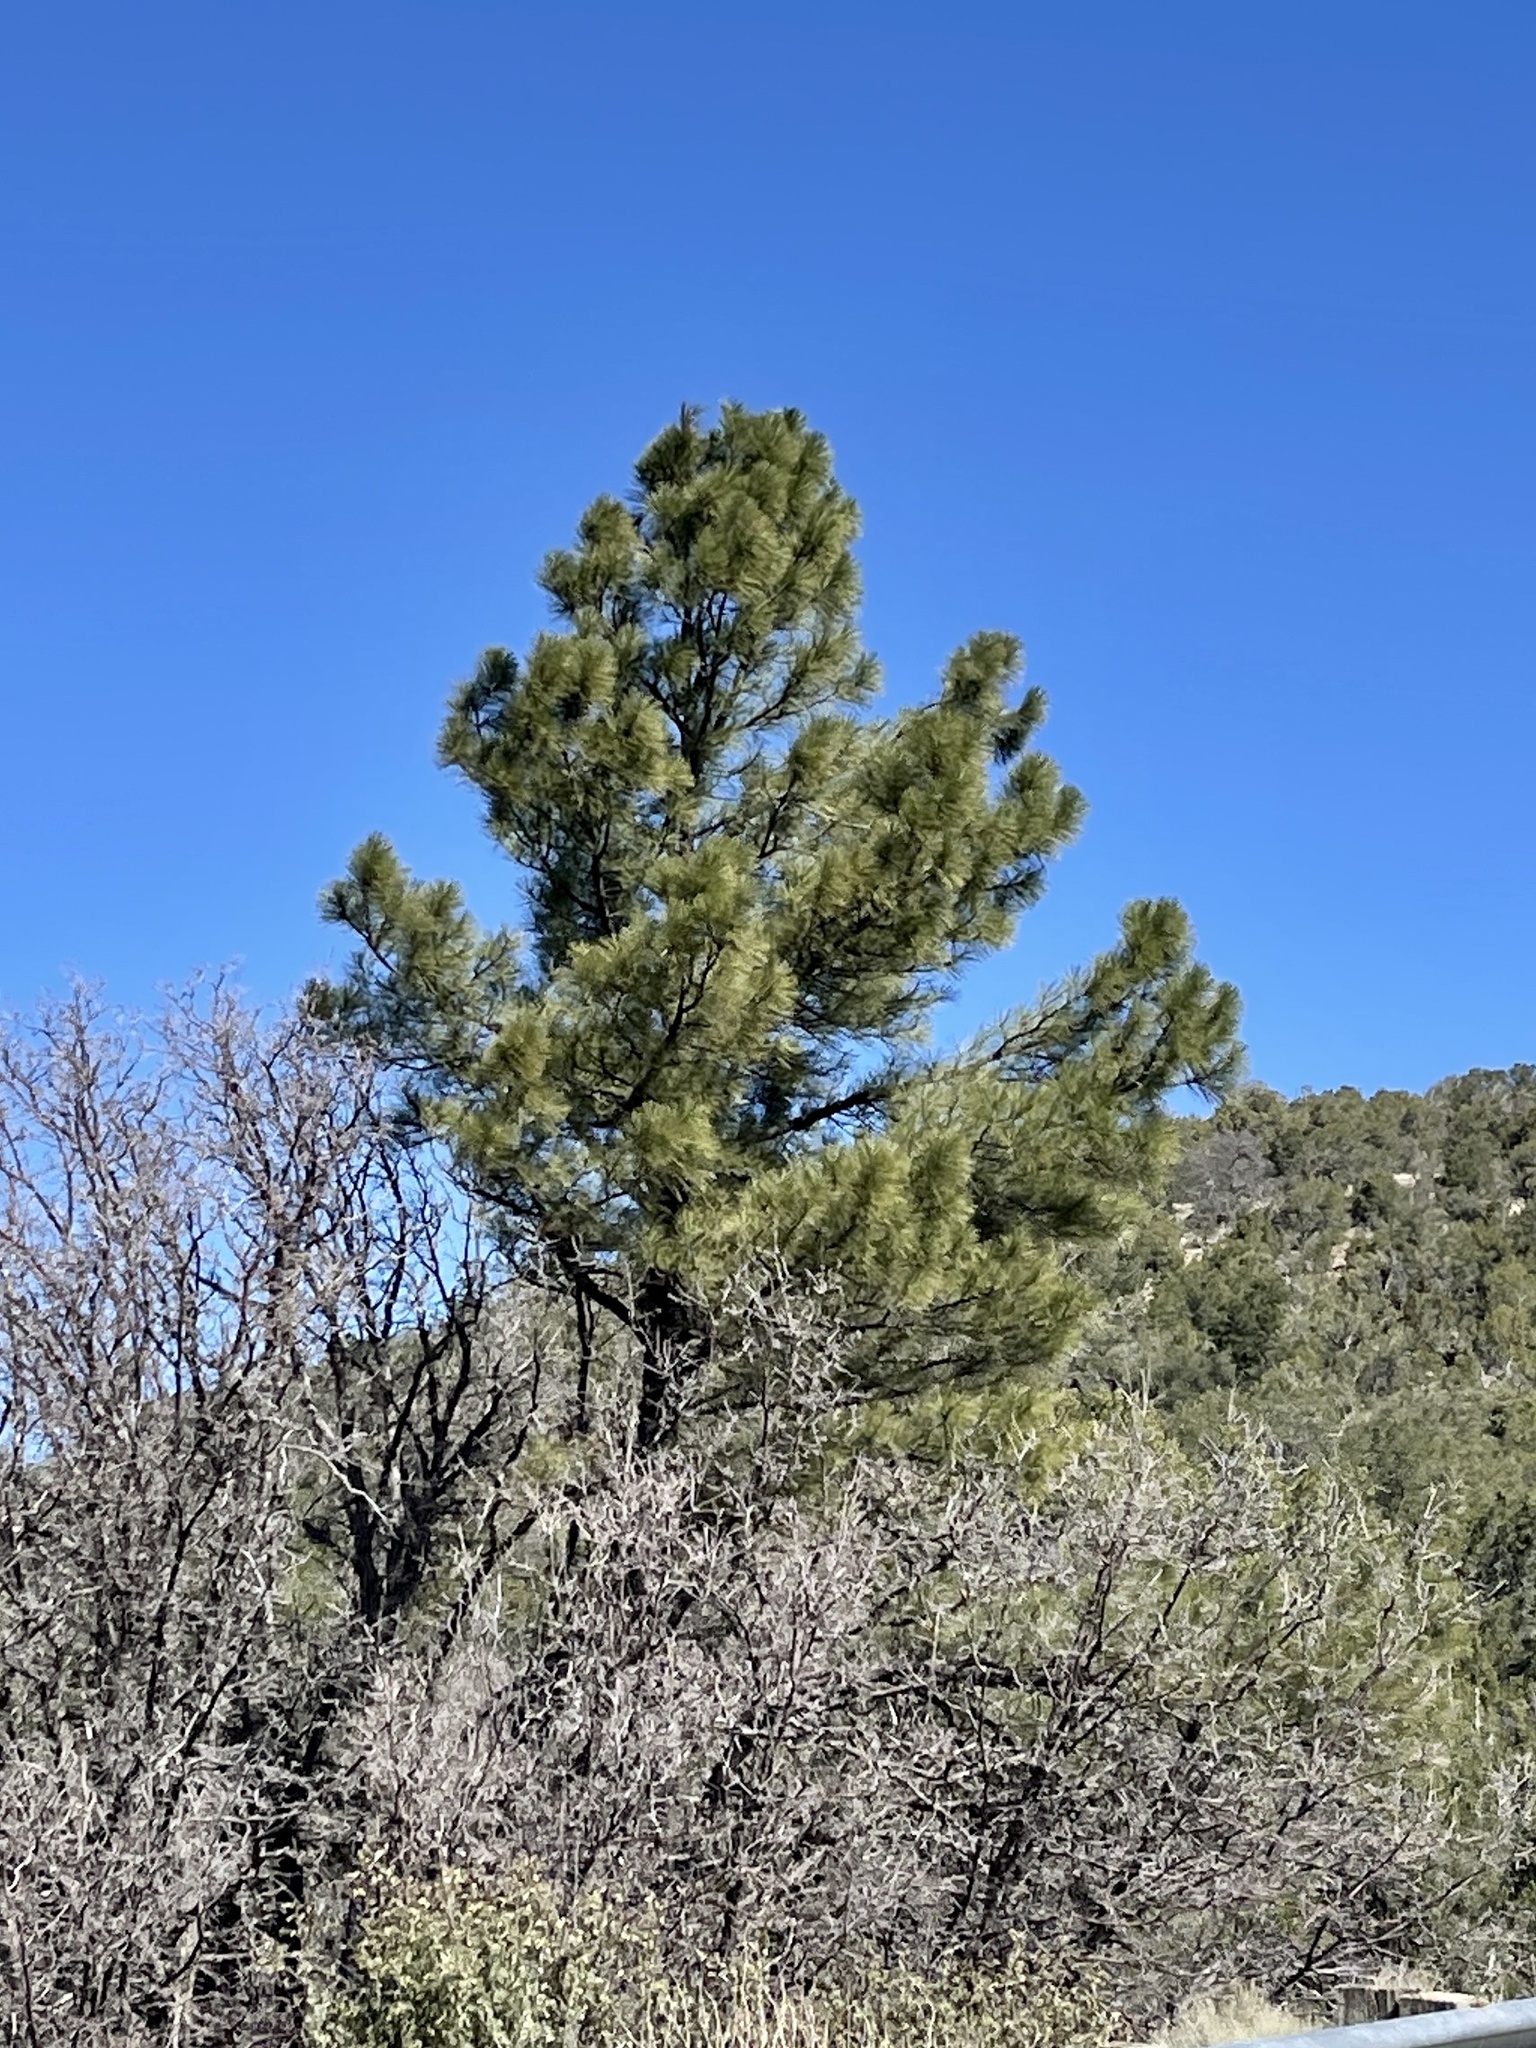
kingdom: Plantae
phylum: Tracheophyta
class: Pinopsida
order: Pinales
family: Pinaceae
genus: Pinus
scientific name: Pinus ponderosa
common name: Western yellow-pine
